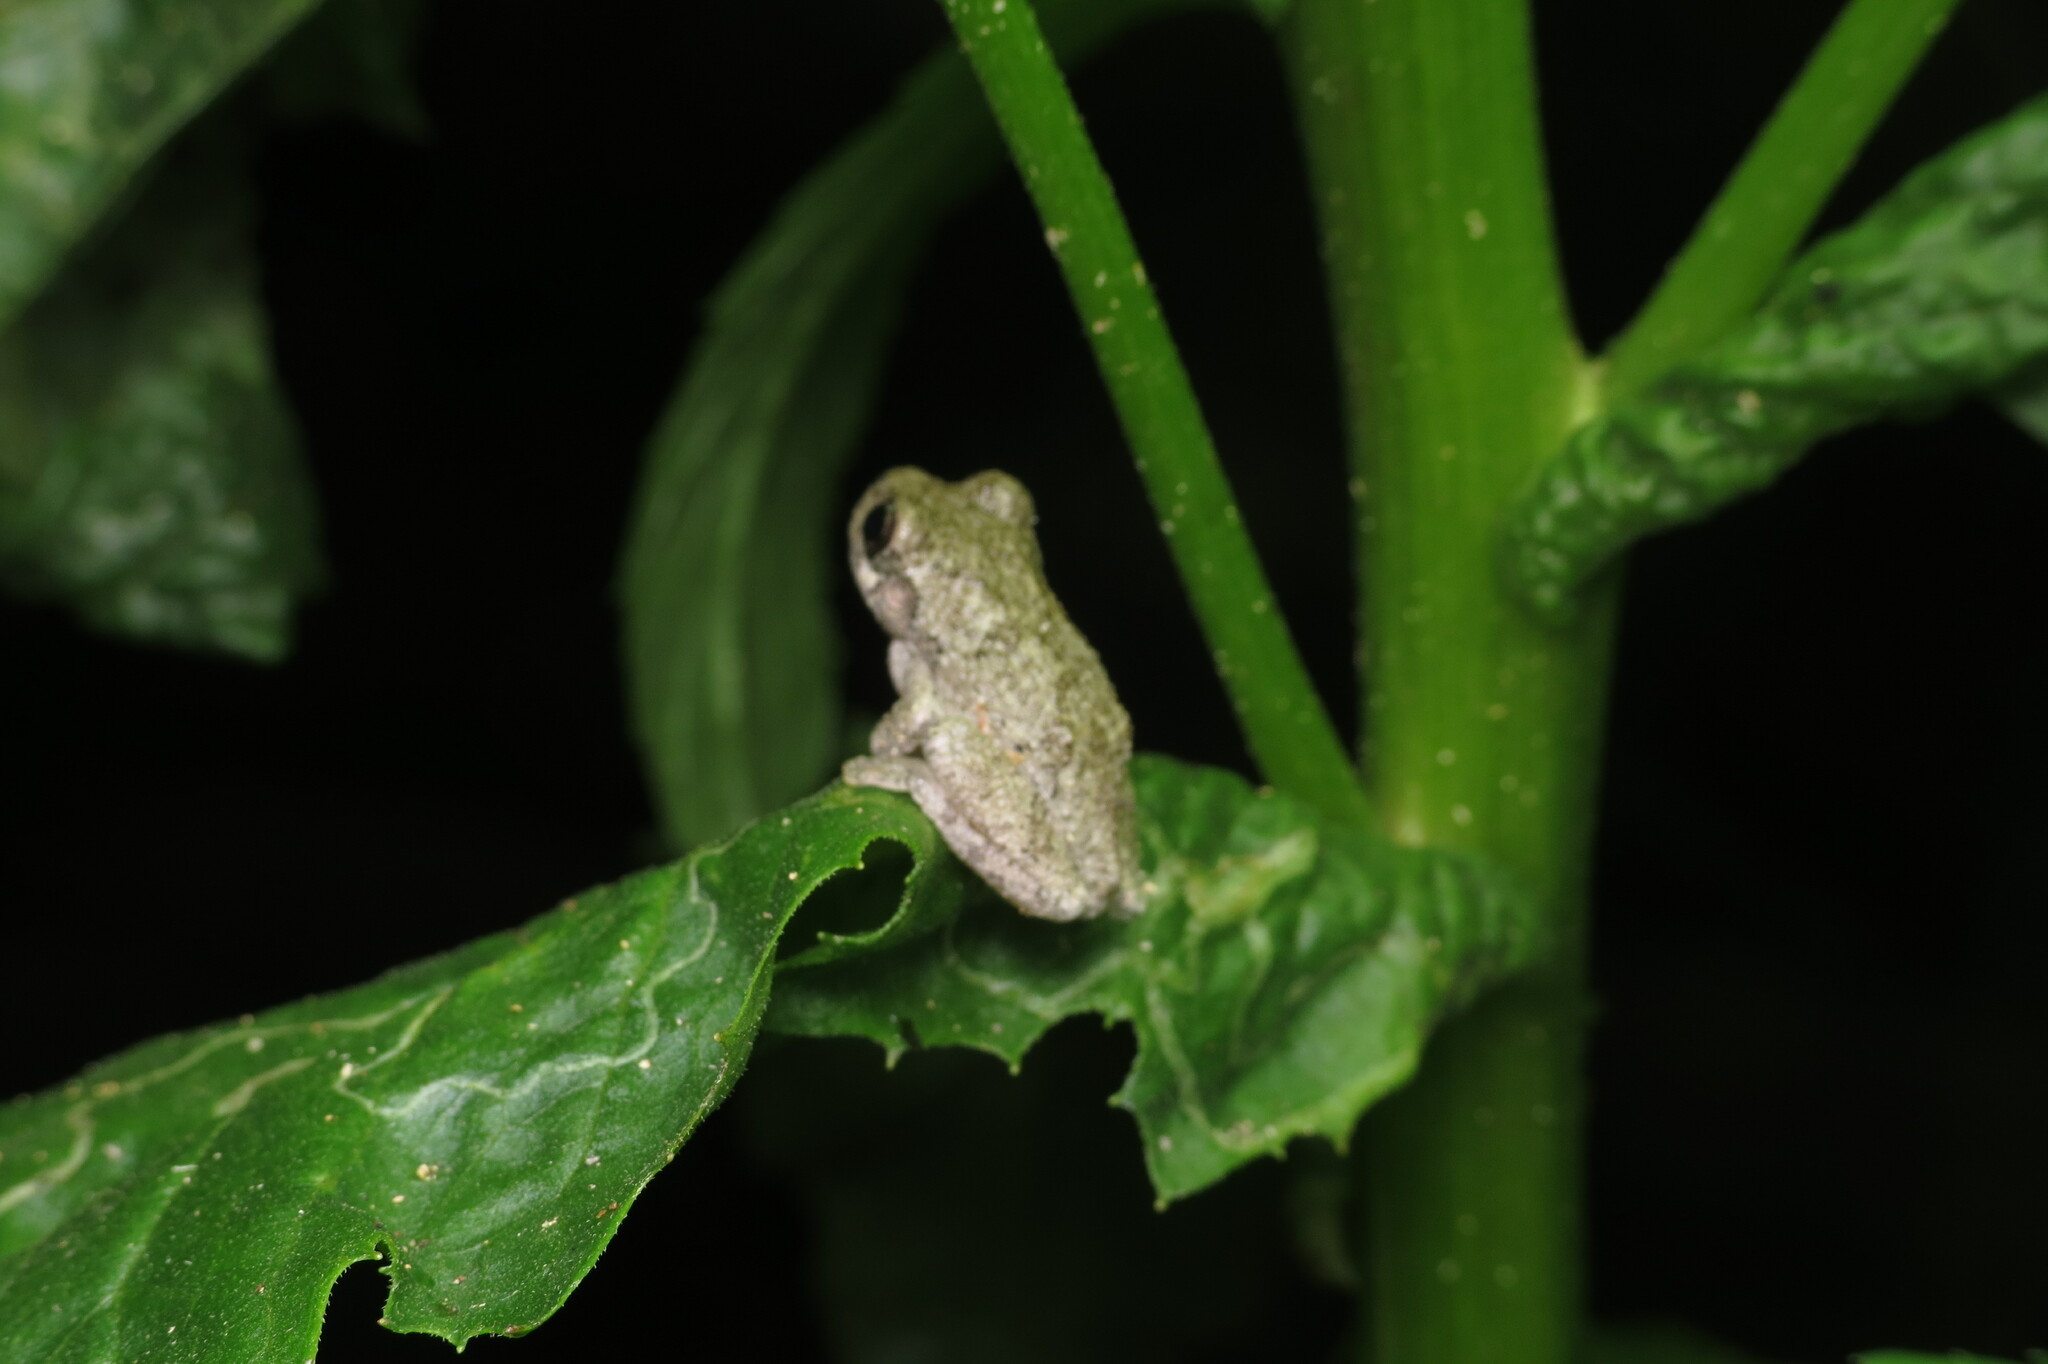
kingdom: Animalia
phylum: Chordata
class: Amphibia
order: Anura
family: Hylidae
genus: Dryophytes
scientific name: Dryophytes chrysoscelis
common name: Cope's gray treefrog
